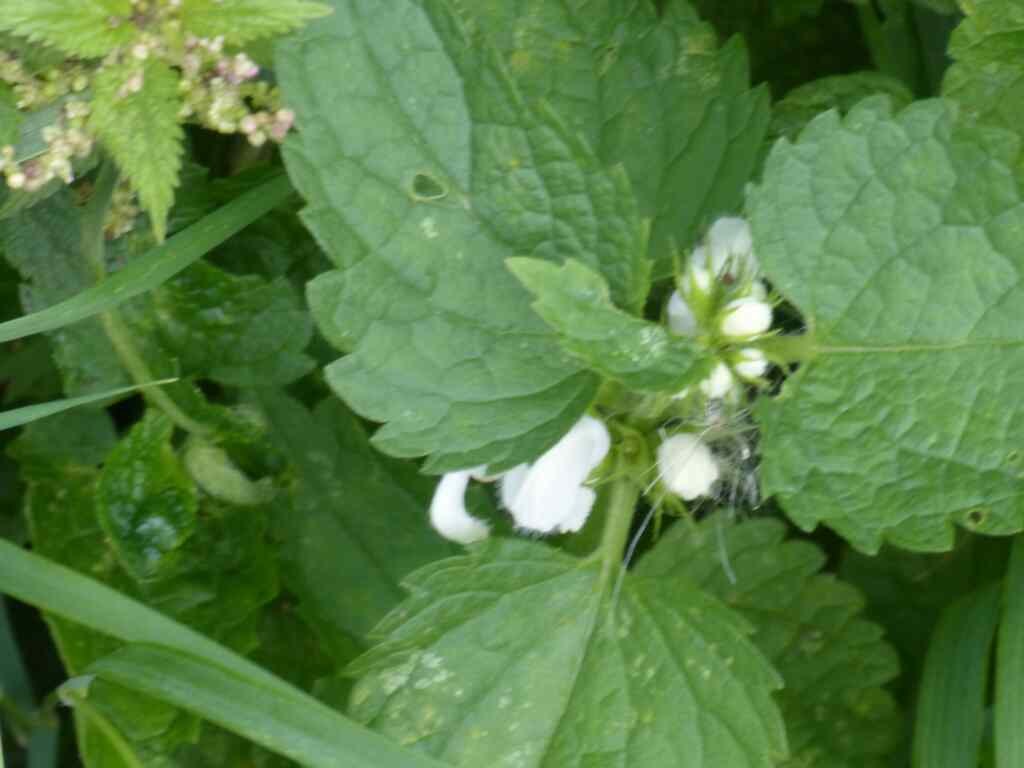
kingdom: Plantae
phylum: Tracheophyta
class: Magnoliopsida
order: Lamiales
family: Lamiaceae
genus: Lamium
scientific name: Lamium album
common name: White dead-nettle
